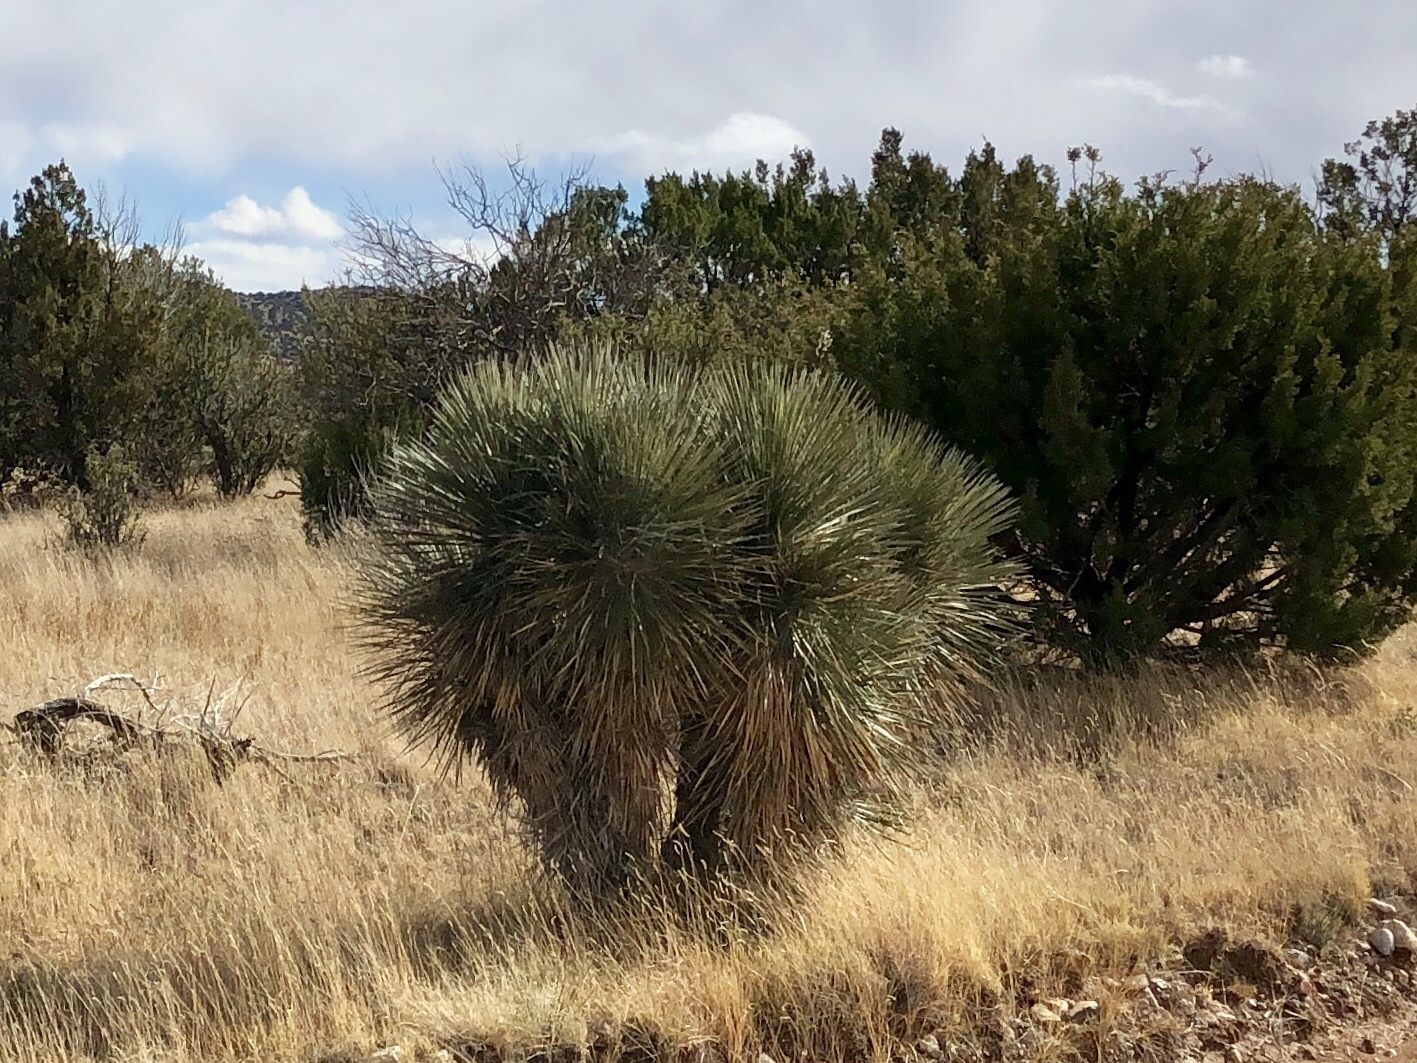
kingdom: Plantae
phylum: Tracheophyta
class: Liliopsida
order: Asparagales
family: Asparagaceae
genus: Yucca
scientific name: Yucca elata
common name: Palmella
